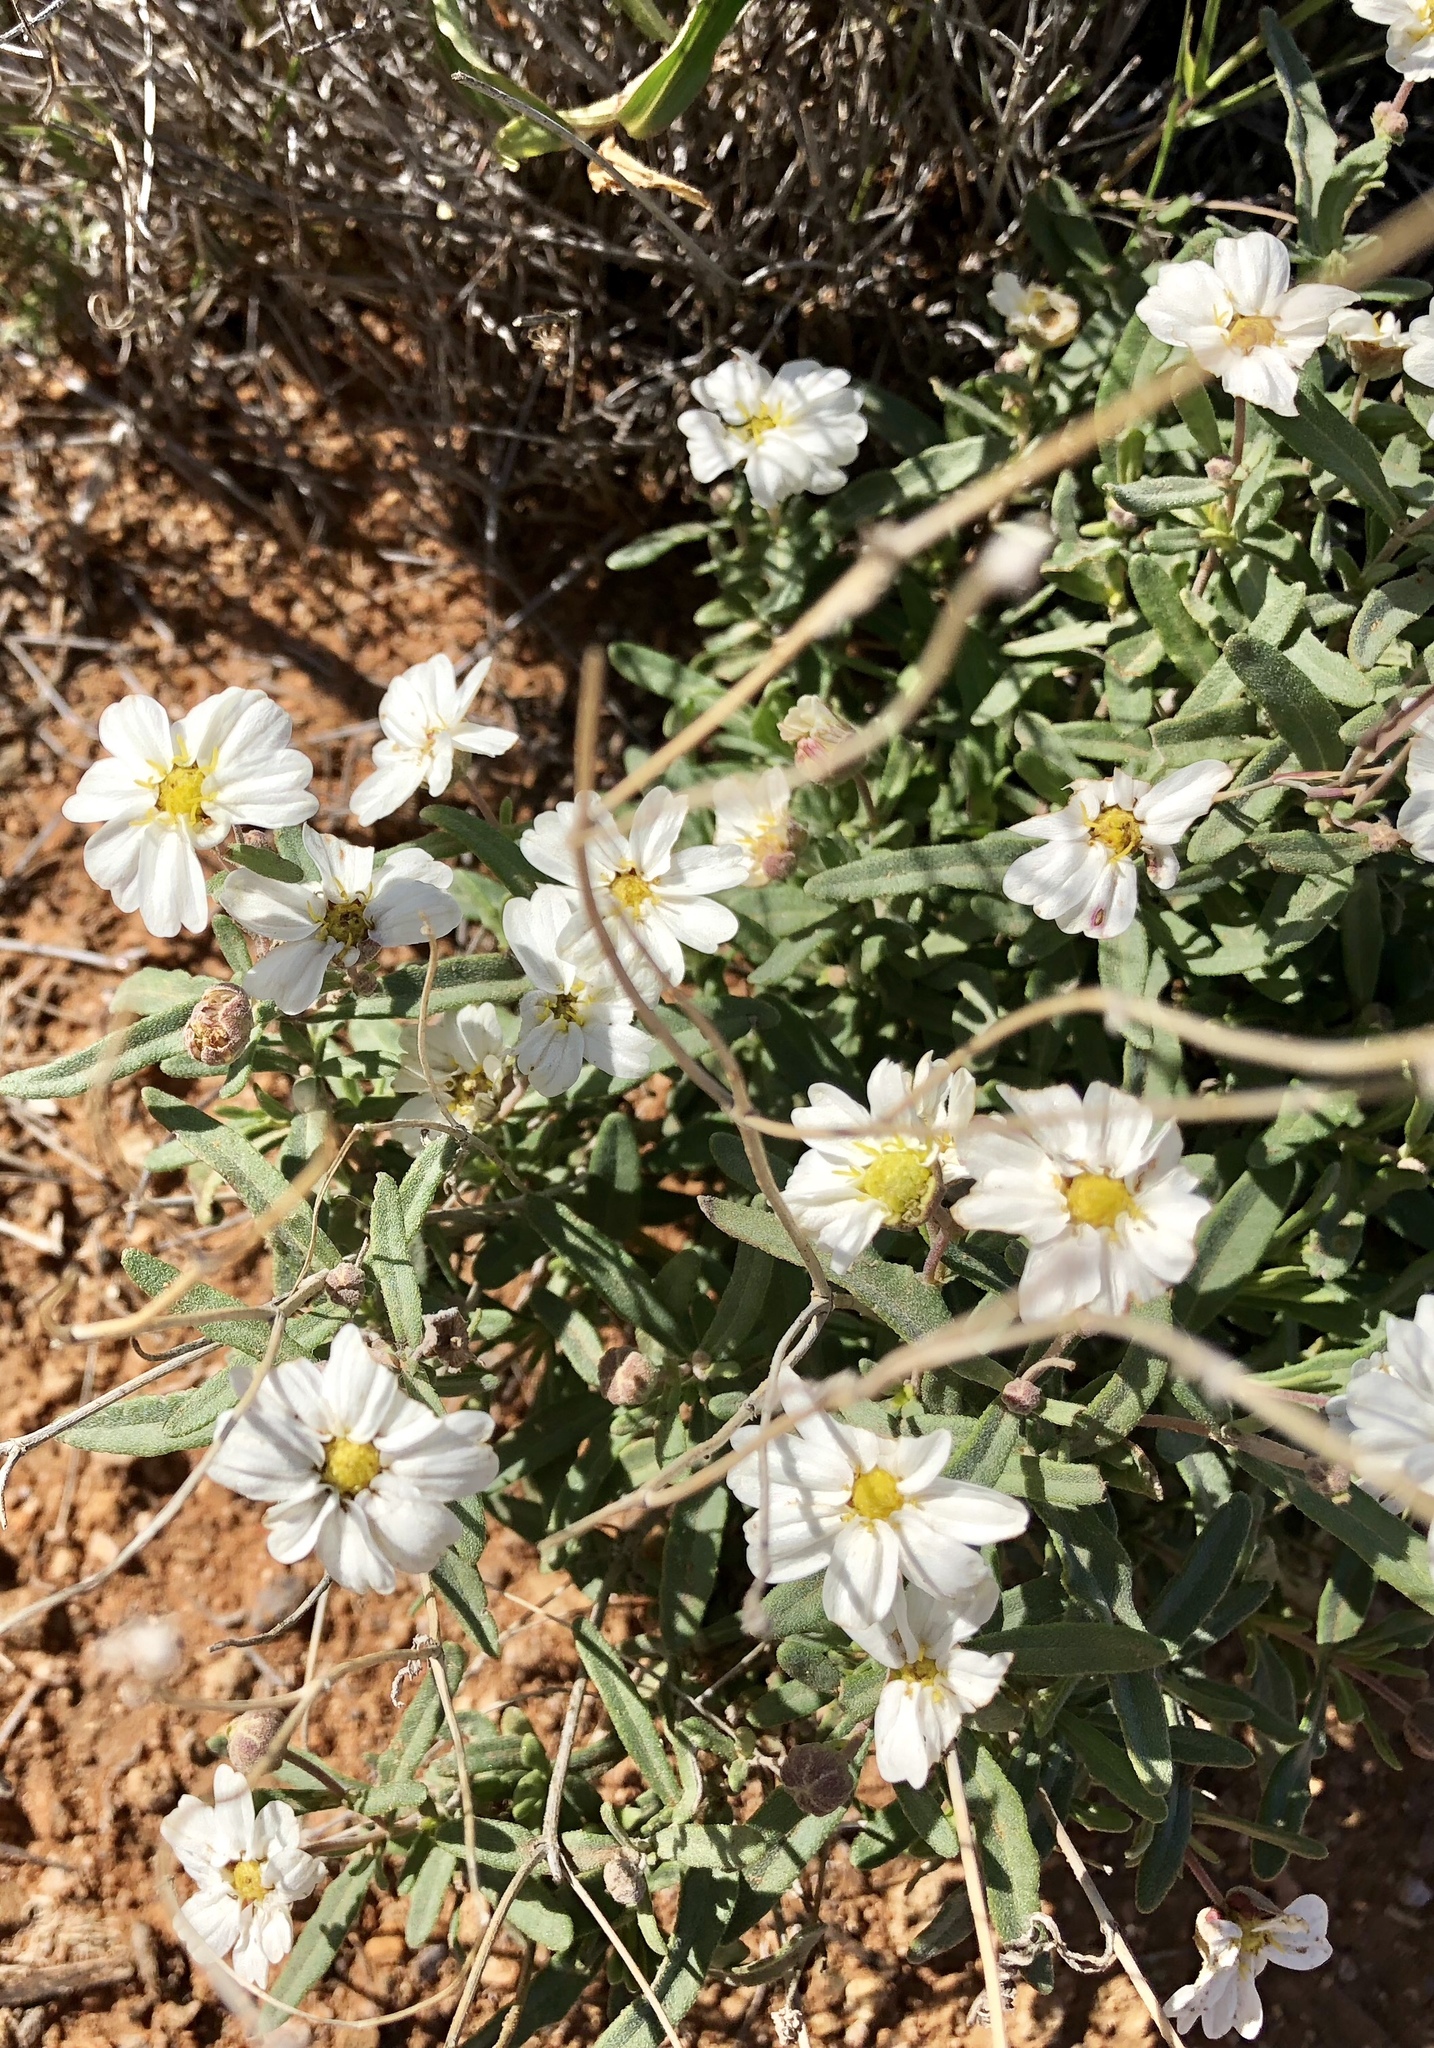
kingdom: Plantae
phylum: Tracheophyta
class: Magnoliopsida
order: Asterales
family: Asteraceae
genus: Melampodium
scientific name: Melampodium leucanthum
